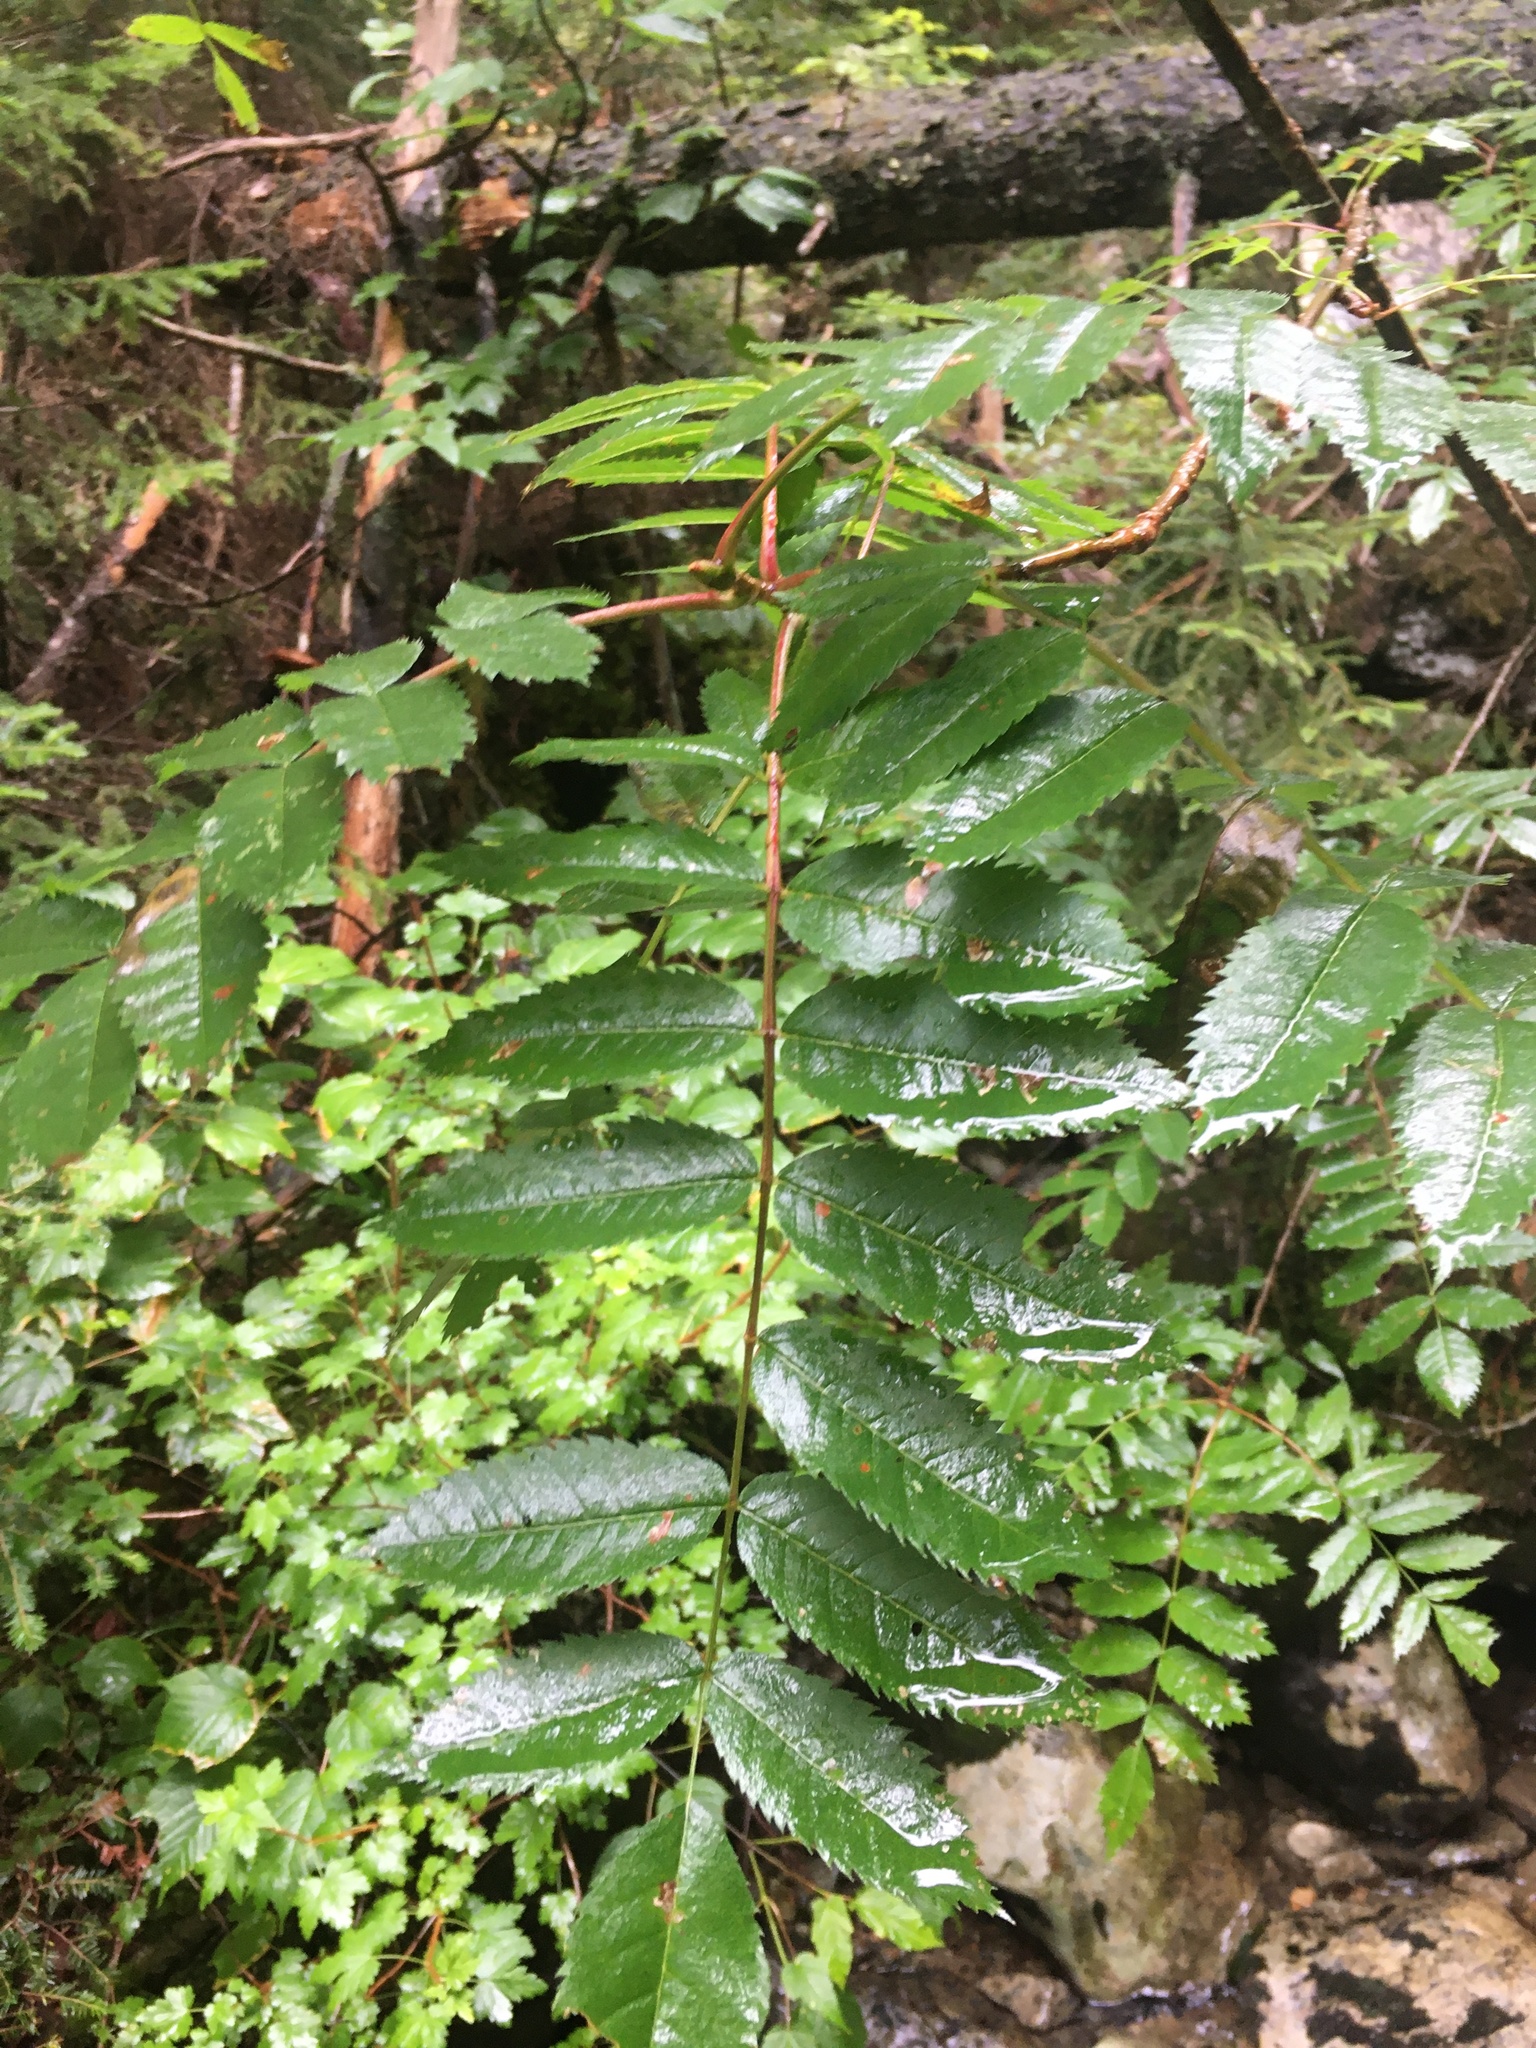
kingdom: Plantae
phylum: Tracheophyta
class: Magnoliopsida
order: Rosales
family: Rosaceae
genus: Sorbus
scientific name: Sorbus americana
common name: American mountain-ash
